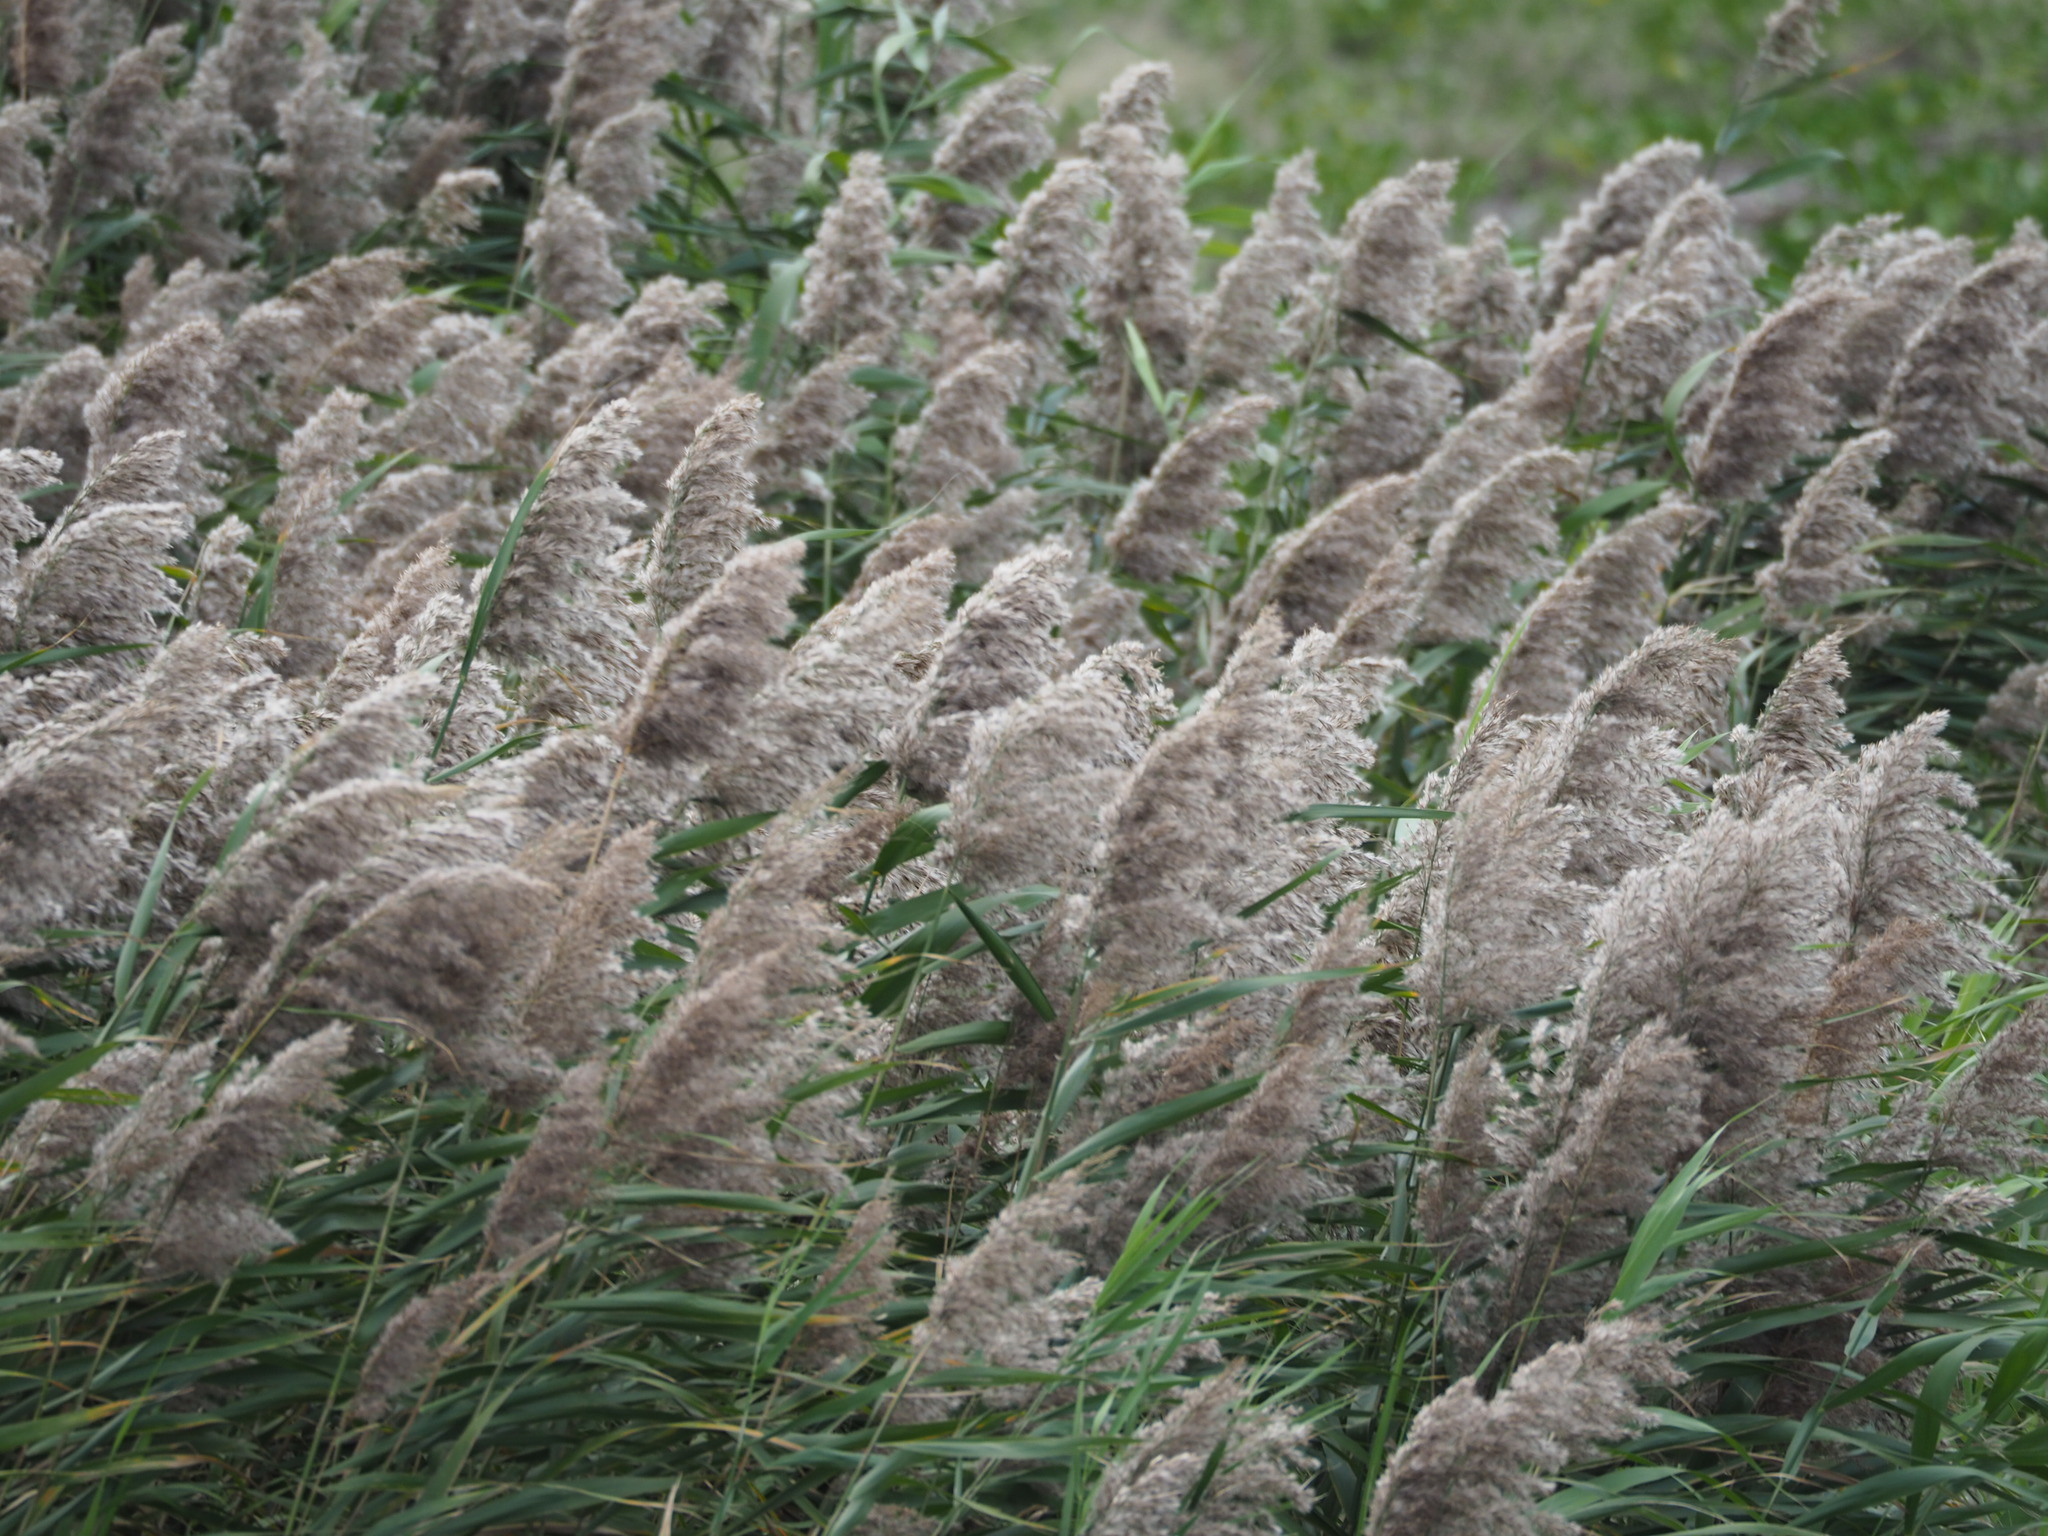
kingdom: Plantae
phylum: Tracheophyta
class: Liliopsida
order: Poales
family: Poaceae
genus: Phragmites
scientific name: Phragmites australis
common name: Common reed
